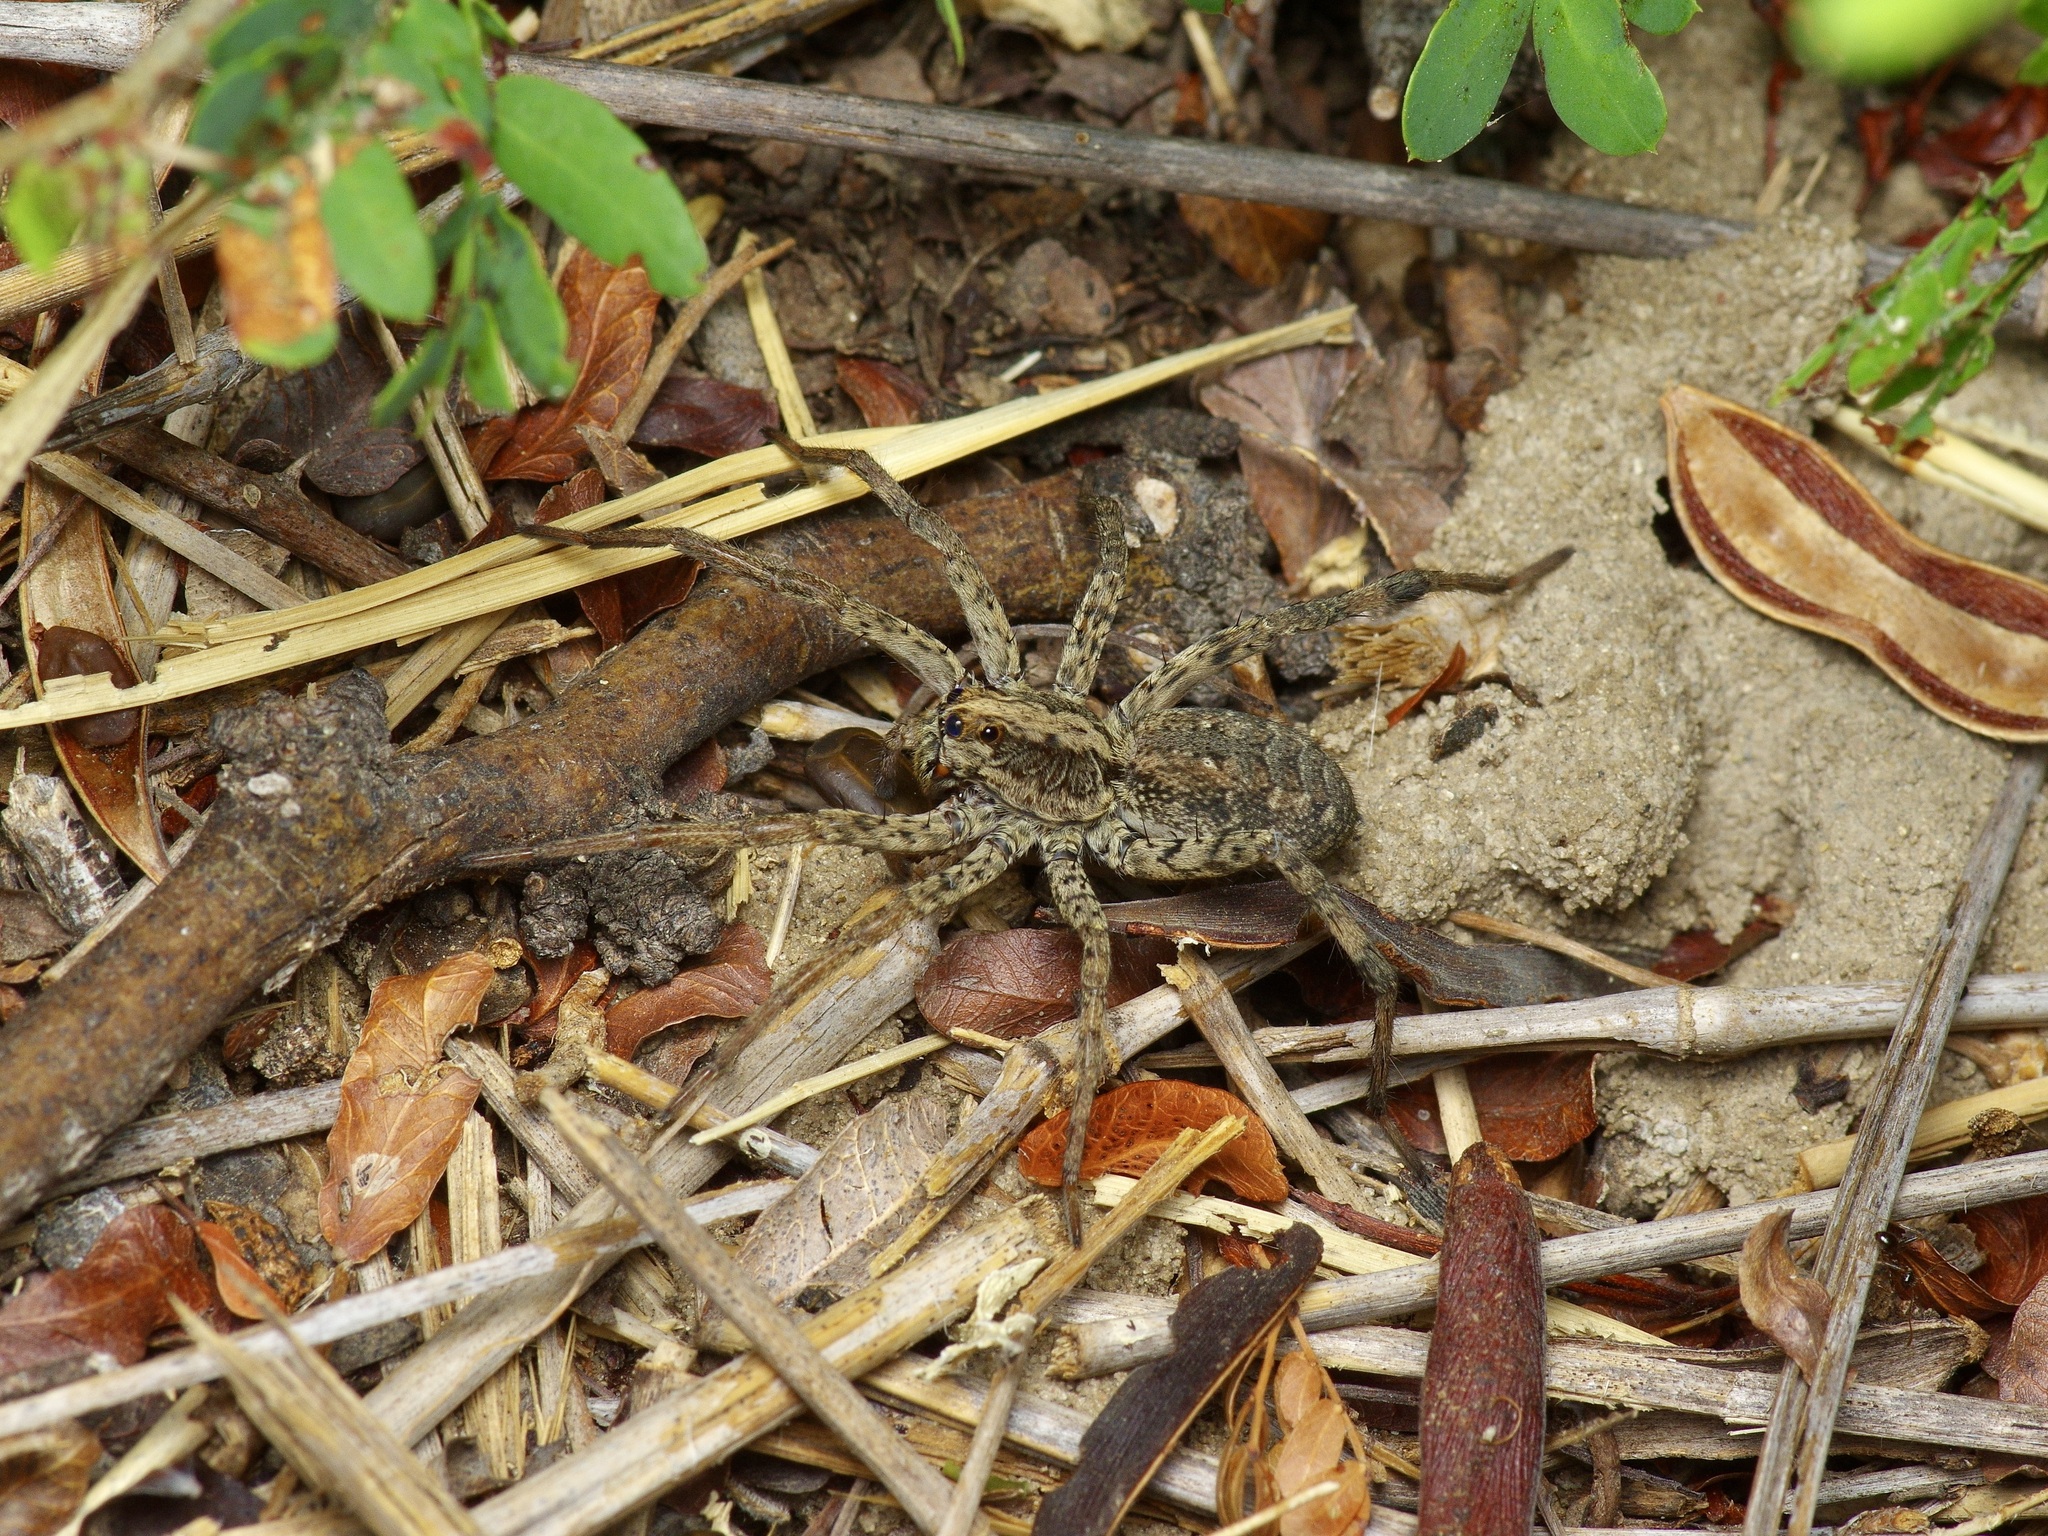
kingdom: Animalia
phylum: Arthropoda
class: Arachnida
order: Araneae
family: Lycosidae
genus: Hogna
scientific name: Hogna antelucana
